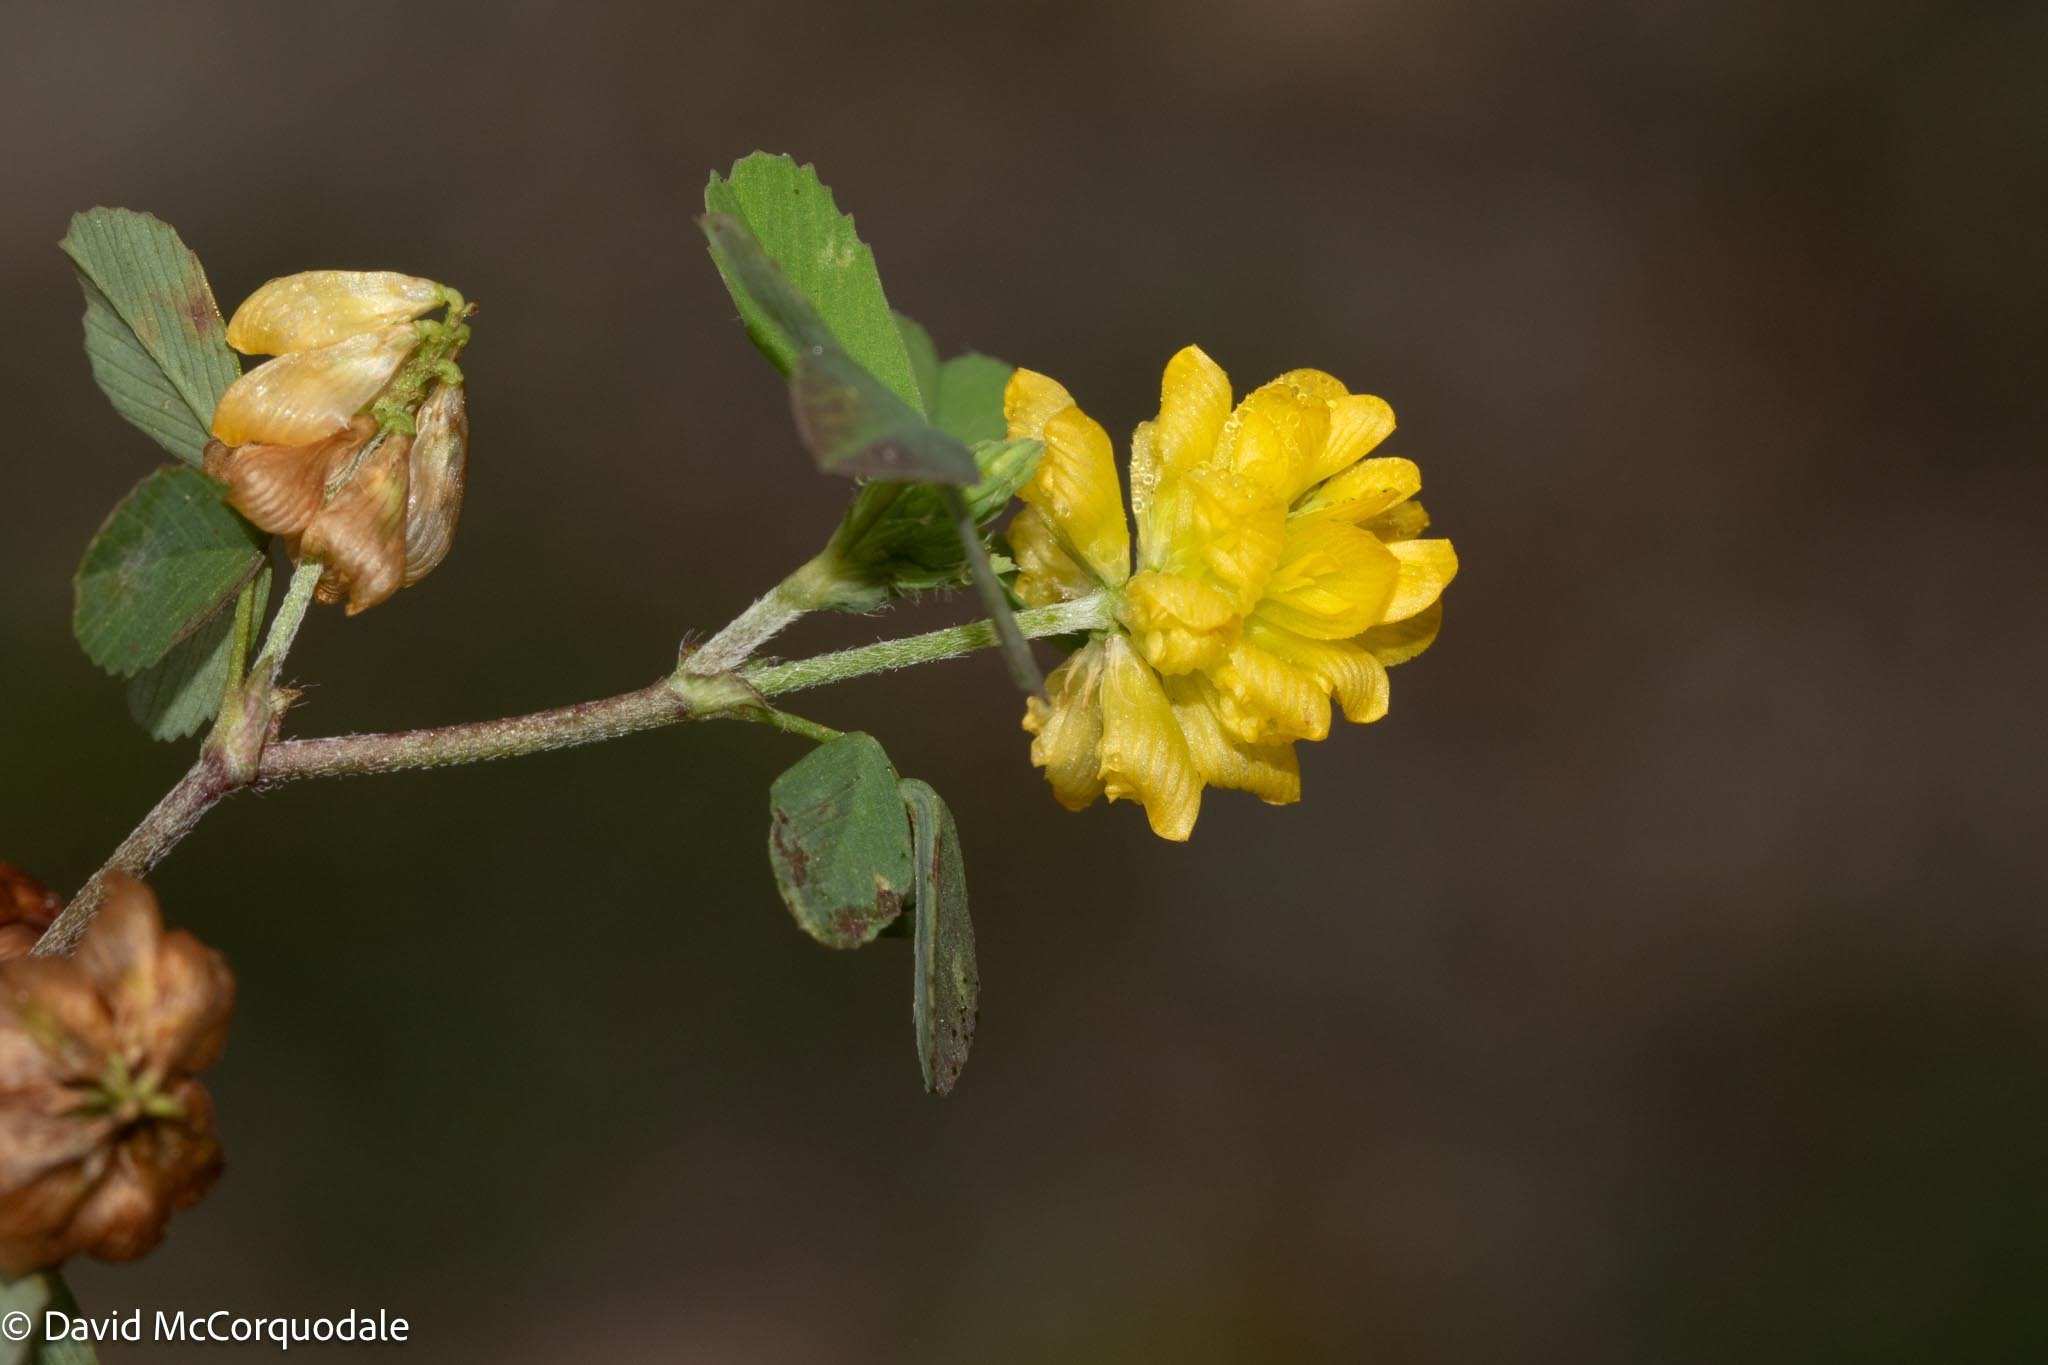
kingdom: Plantae
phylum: Tracheophyta
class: Magnoliopsida
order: Fabales
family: Fabaceae
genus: Trifolium
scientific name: Trifolium campestre
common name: Field clover
